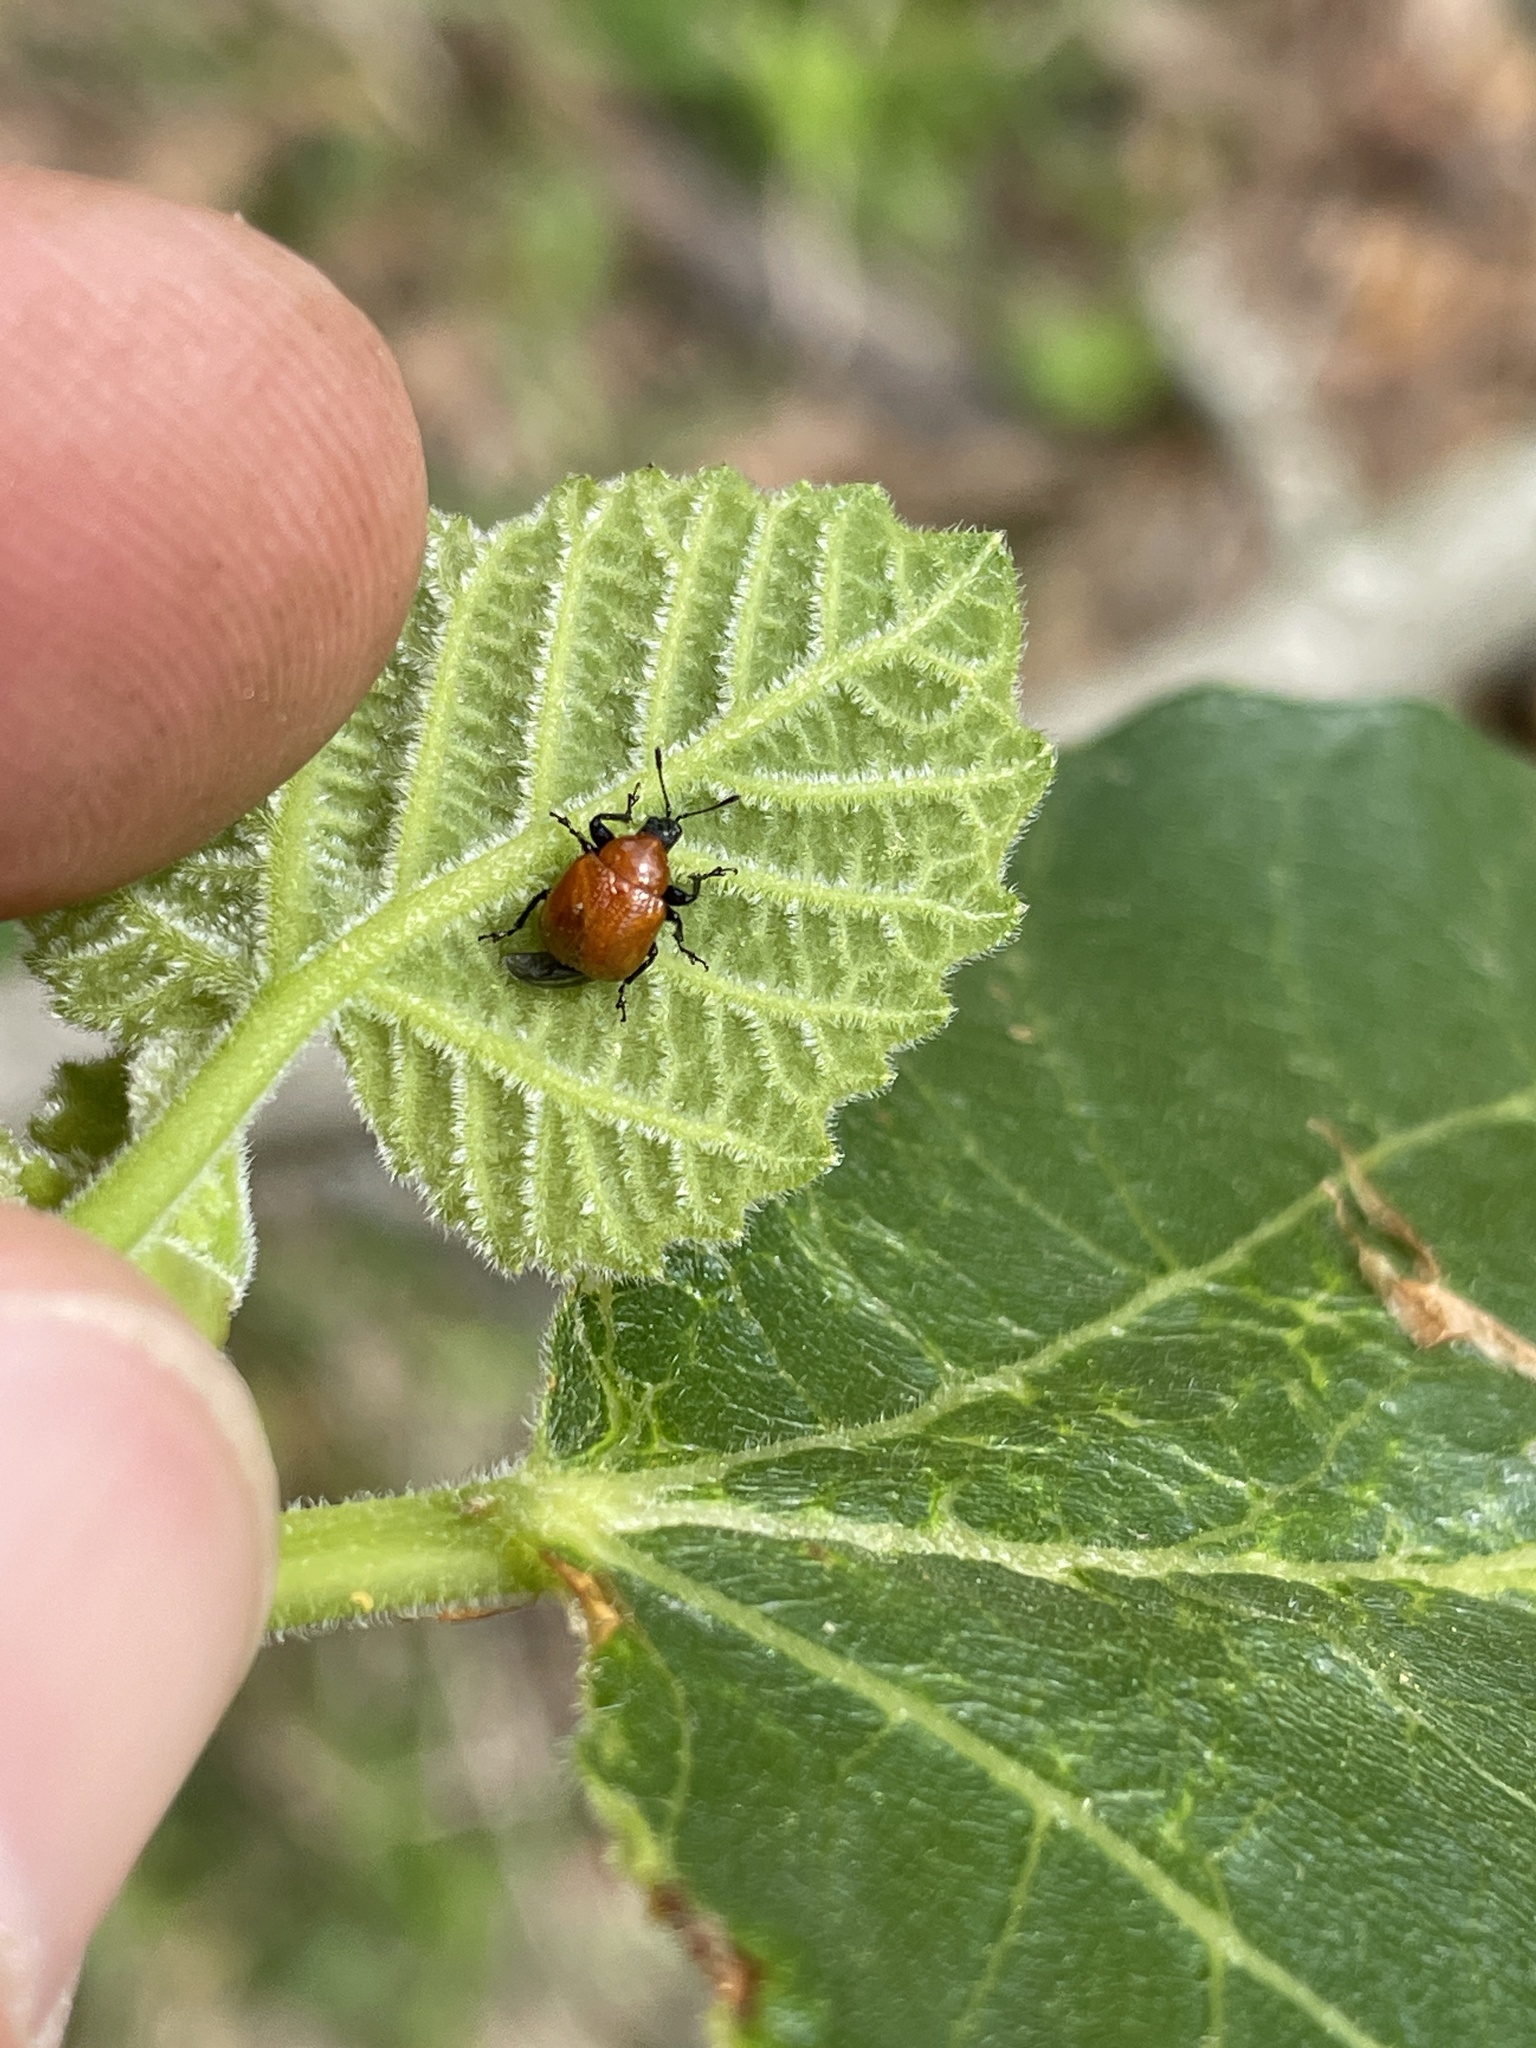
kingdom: Animalia
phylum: Arthropoda
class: Insecta
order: Coleoptera
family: Attelabidae
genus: Homoeolabus
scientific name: Homoeolabus analis
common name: Oak leaf rolling weevil
